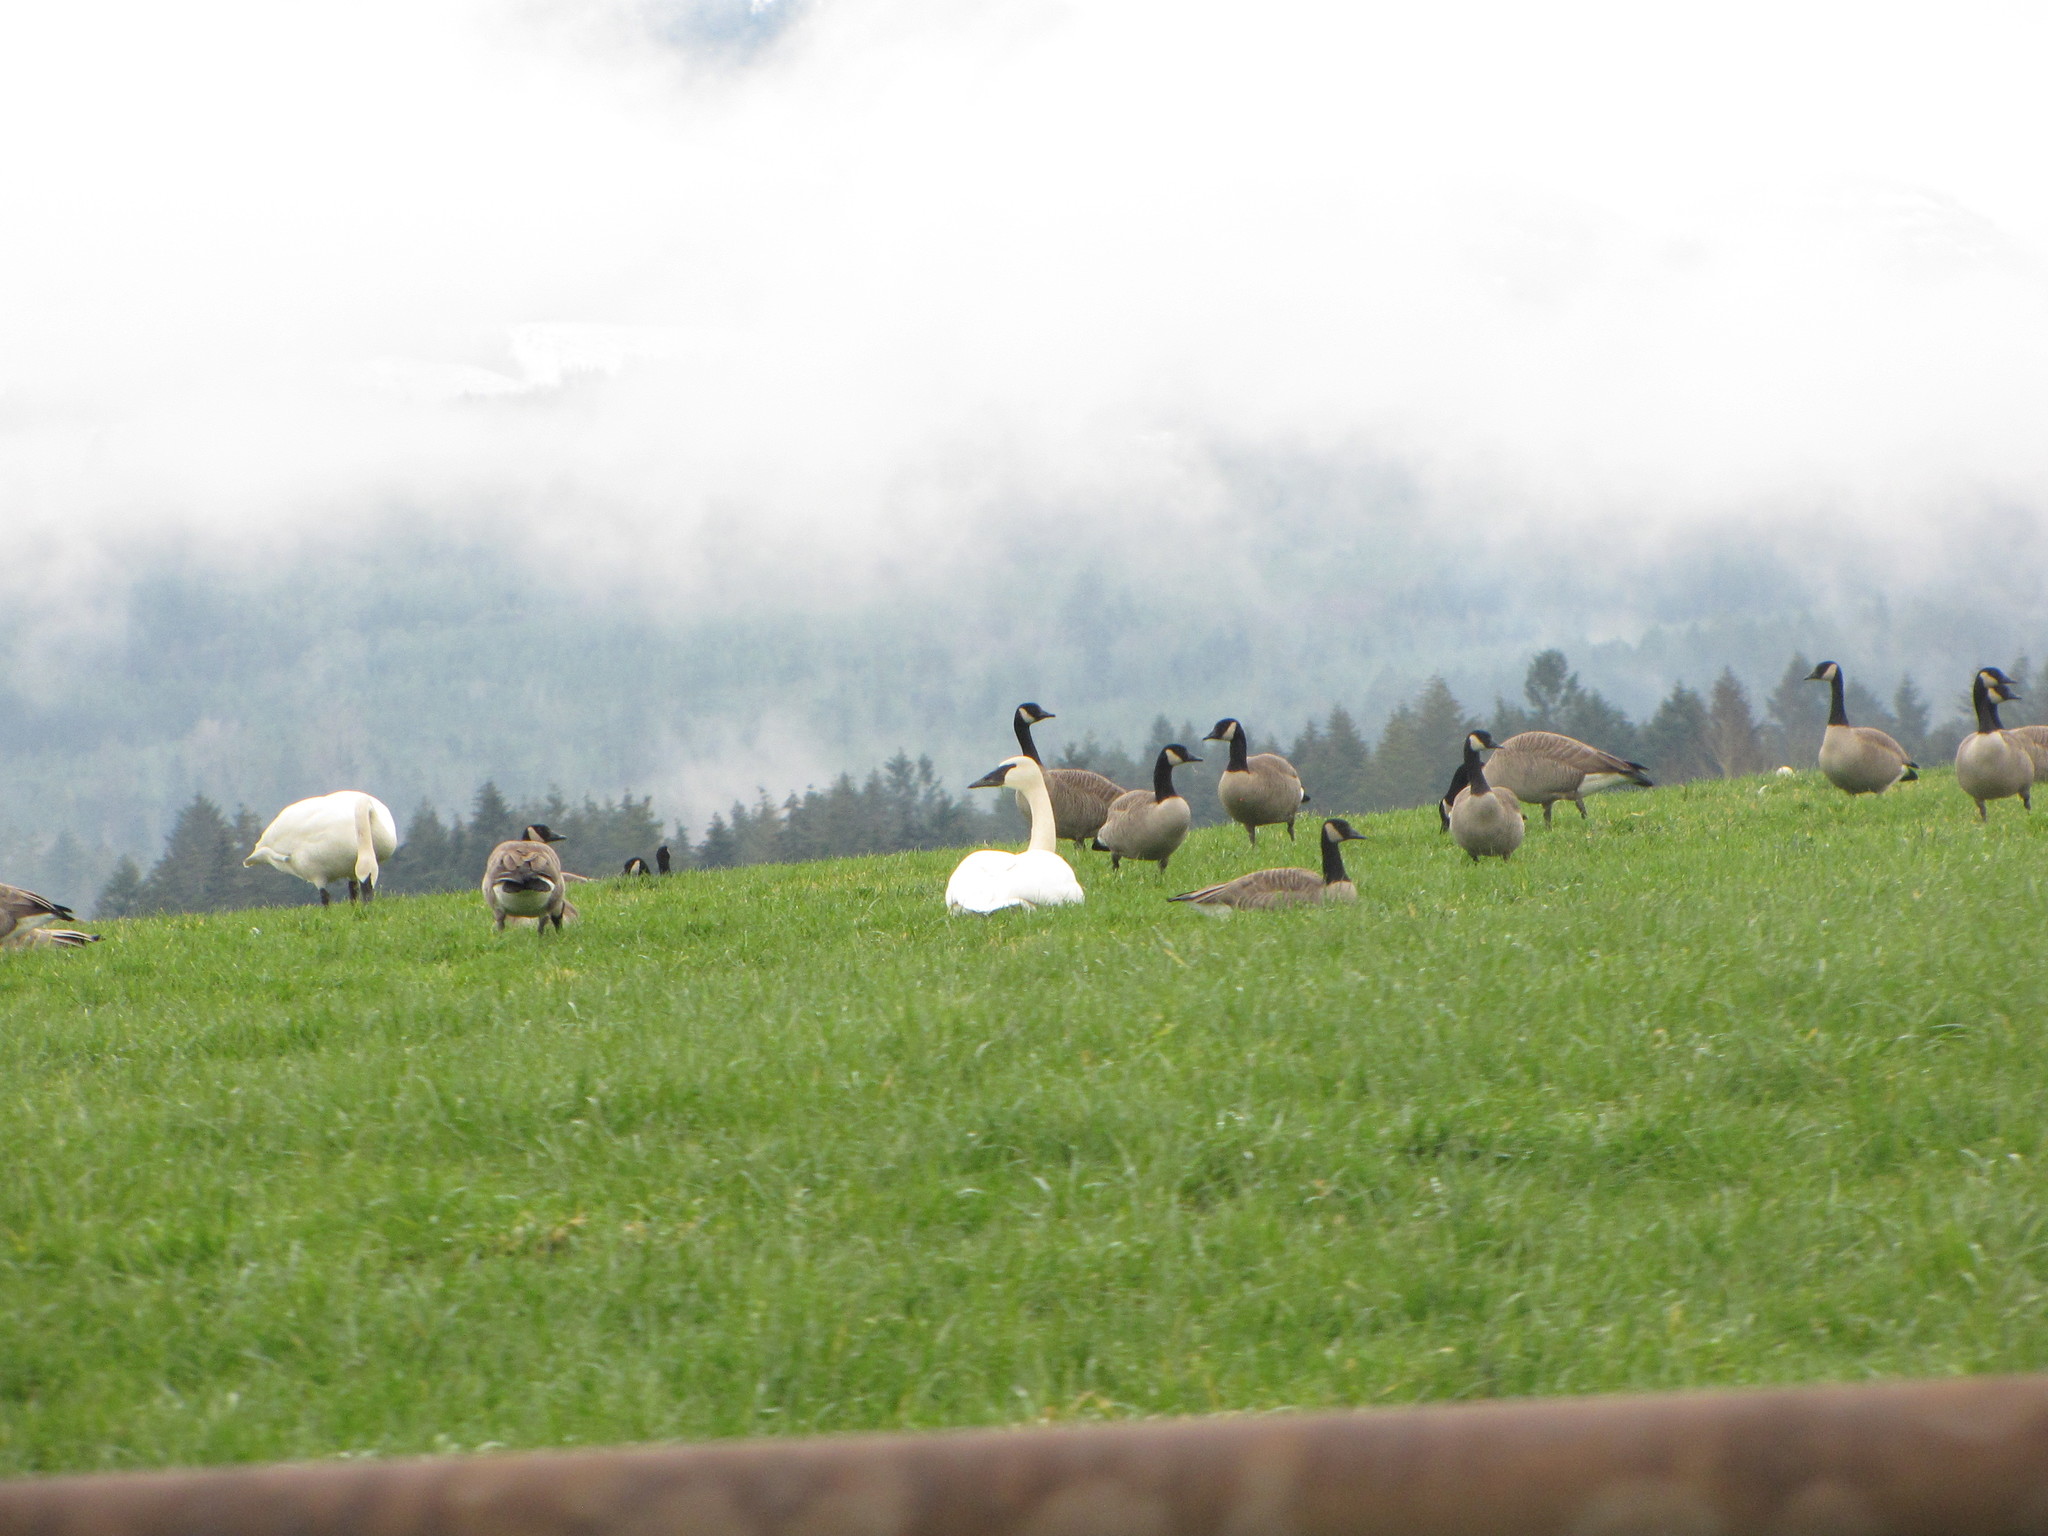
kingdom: Animalia
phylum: Chordata
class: Aves
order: Anseriformes
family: Anatidae
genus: Branta
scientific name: Branta canadensis
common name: Canada goose
